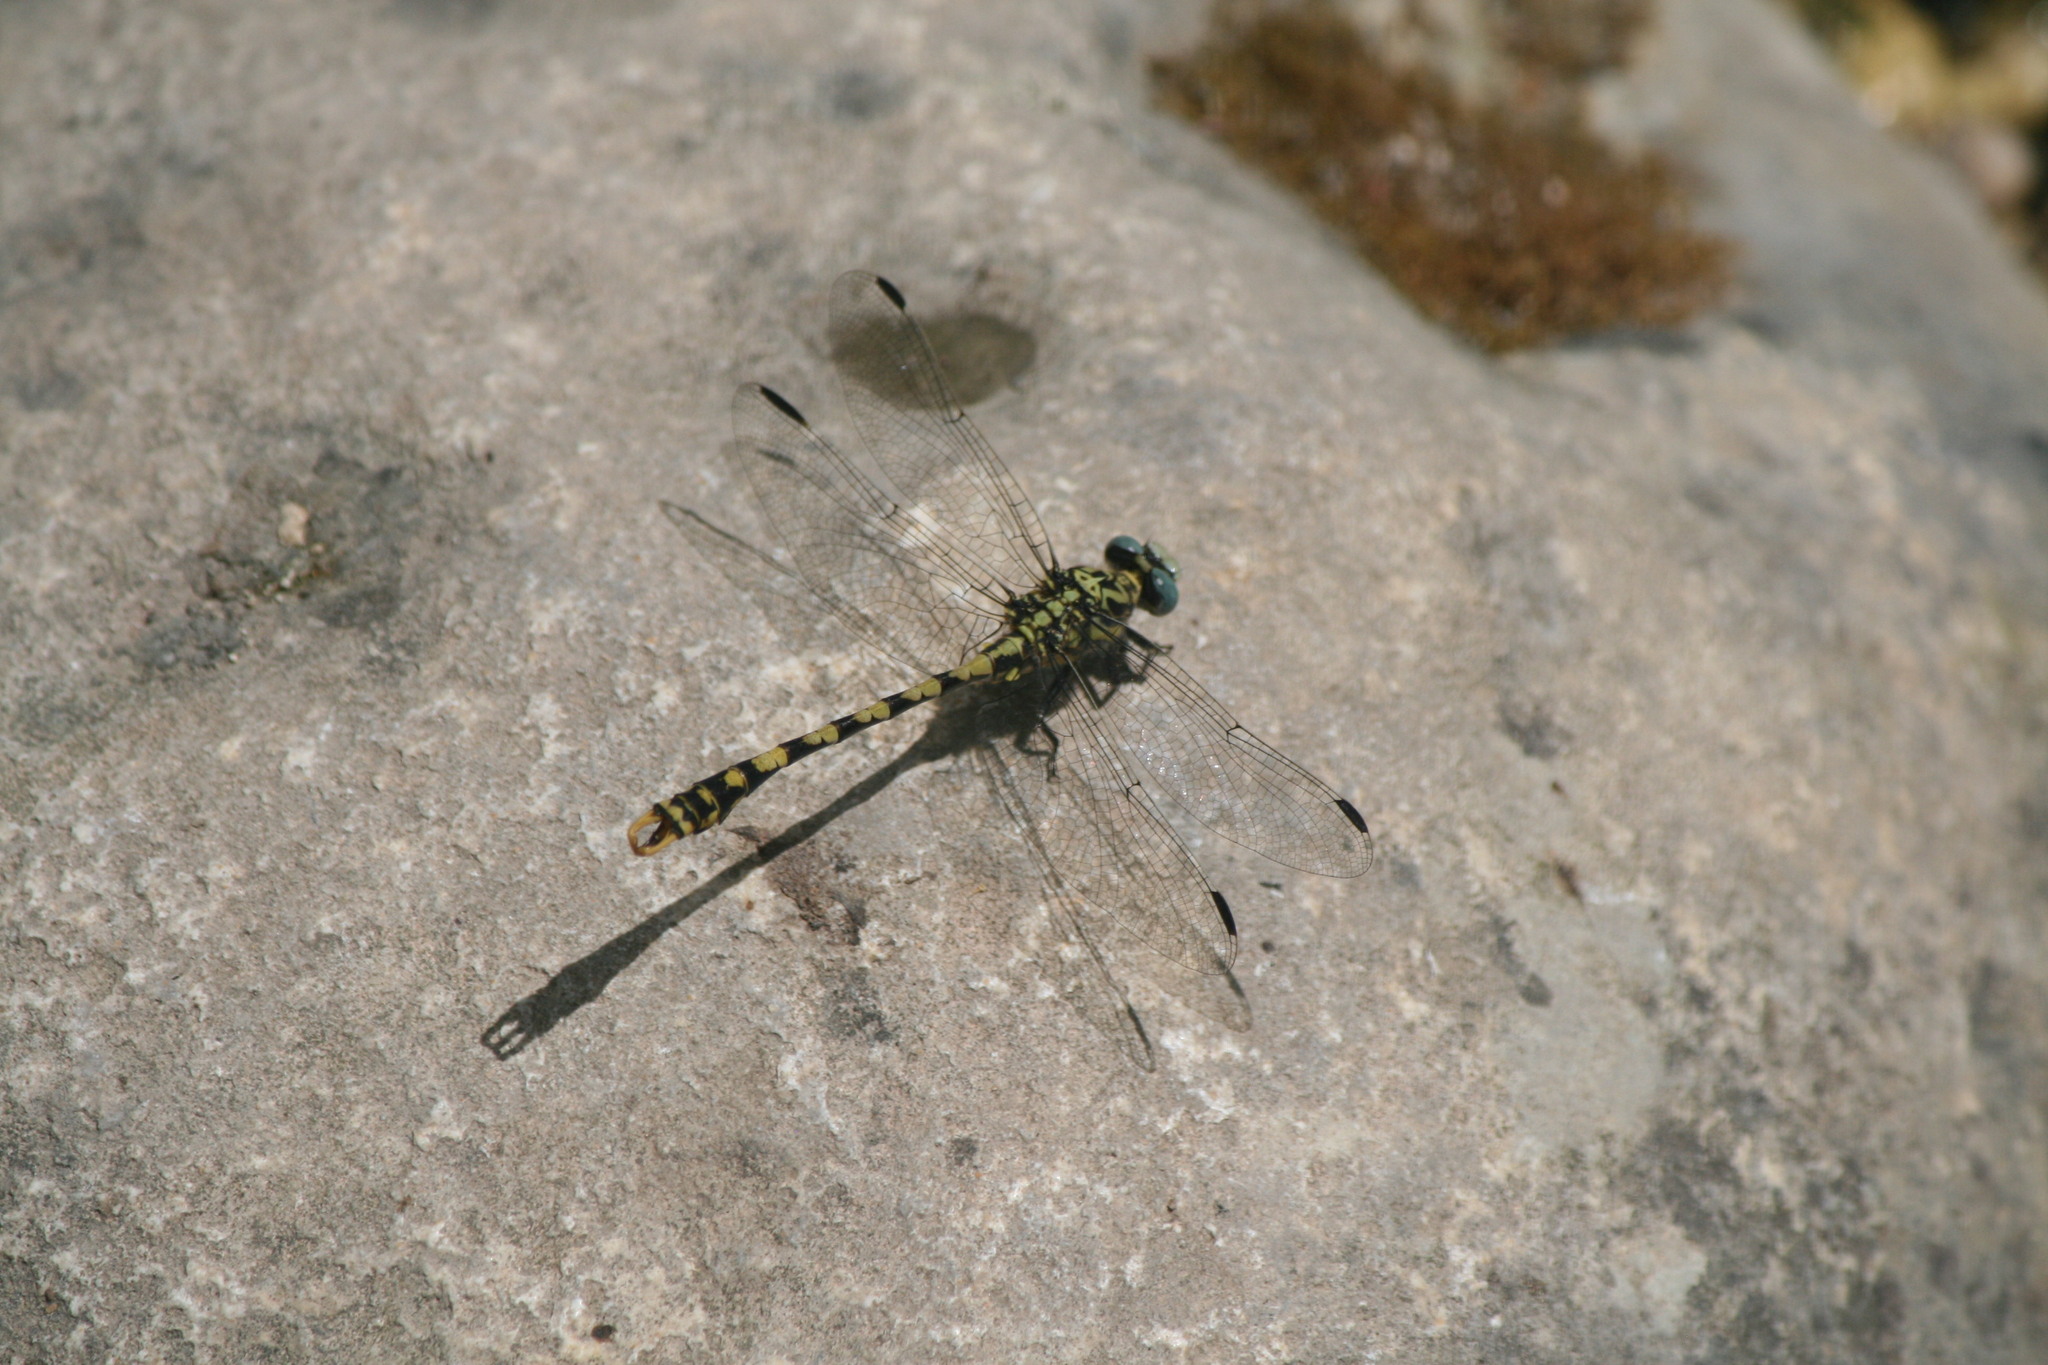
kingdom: Animalia
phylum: Arthropoda
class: Insecta
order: Odonata
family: Gomphidae
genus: Onychogomphus
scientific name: Onychogomphus uncatus
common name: Large pincertail
